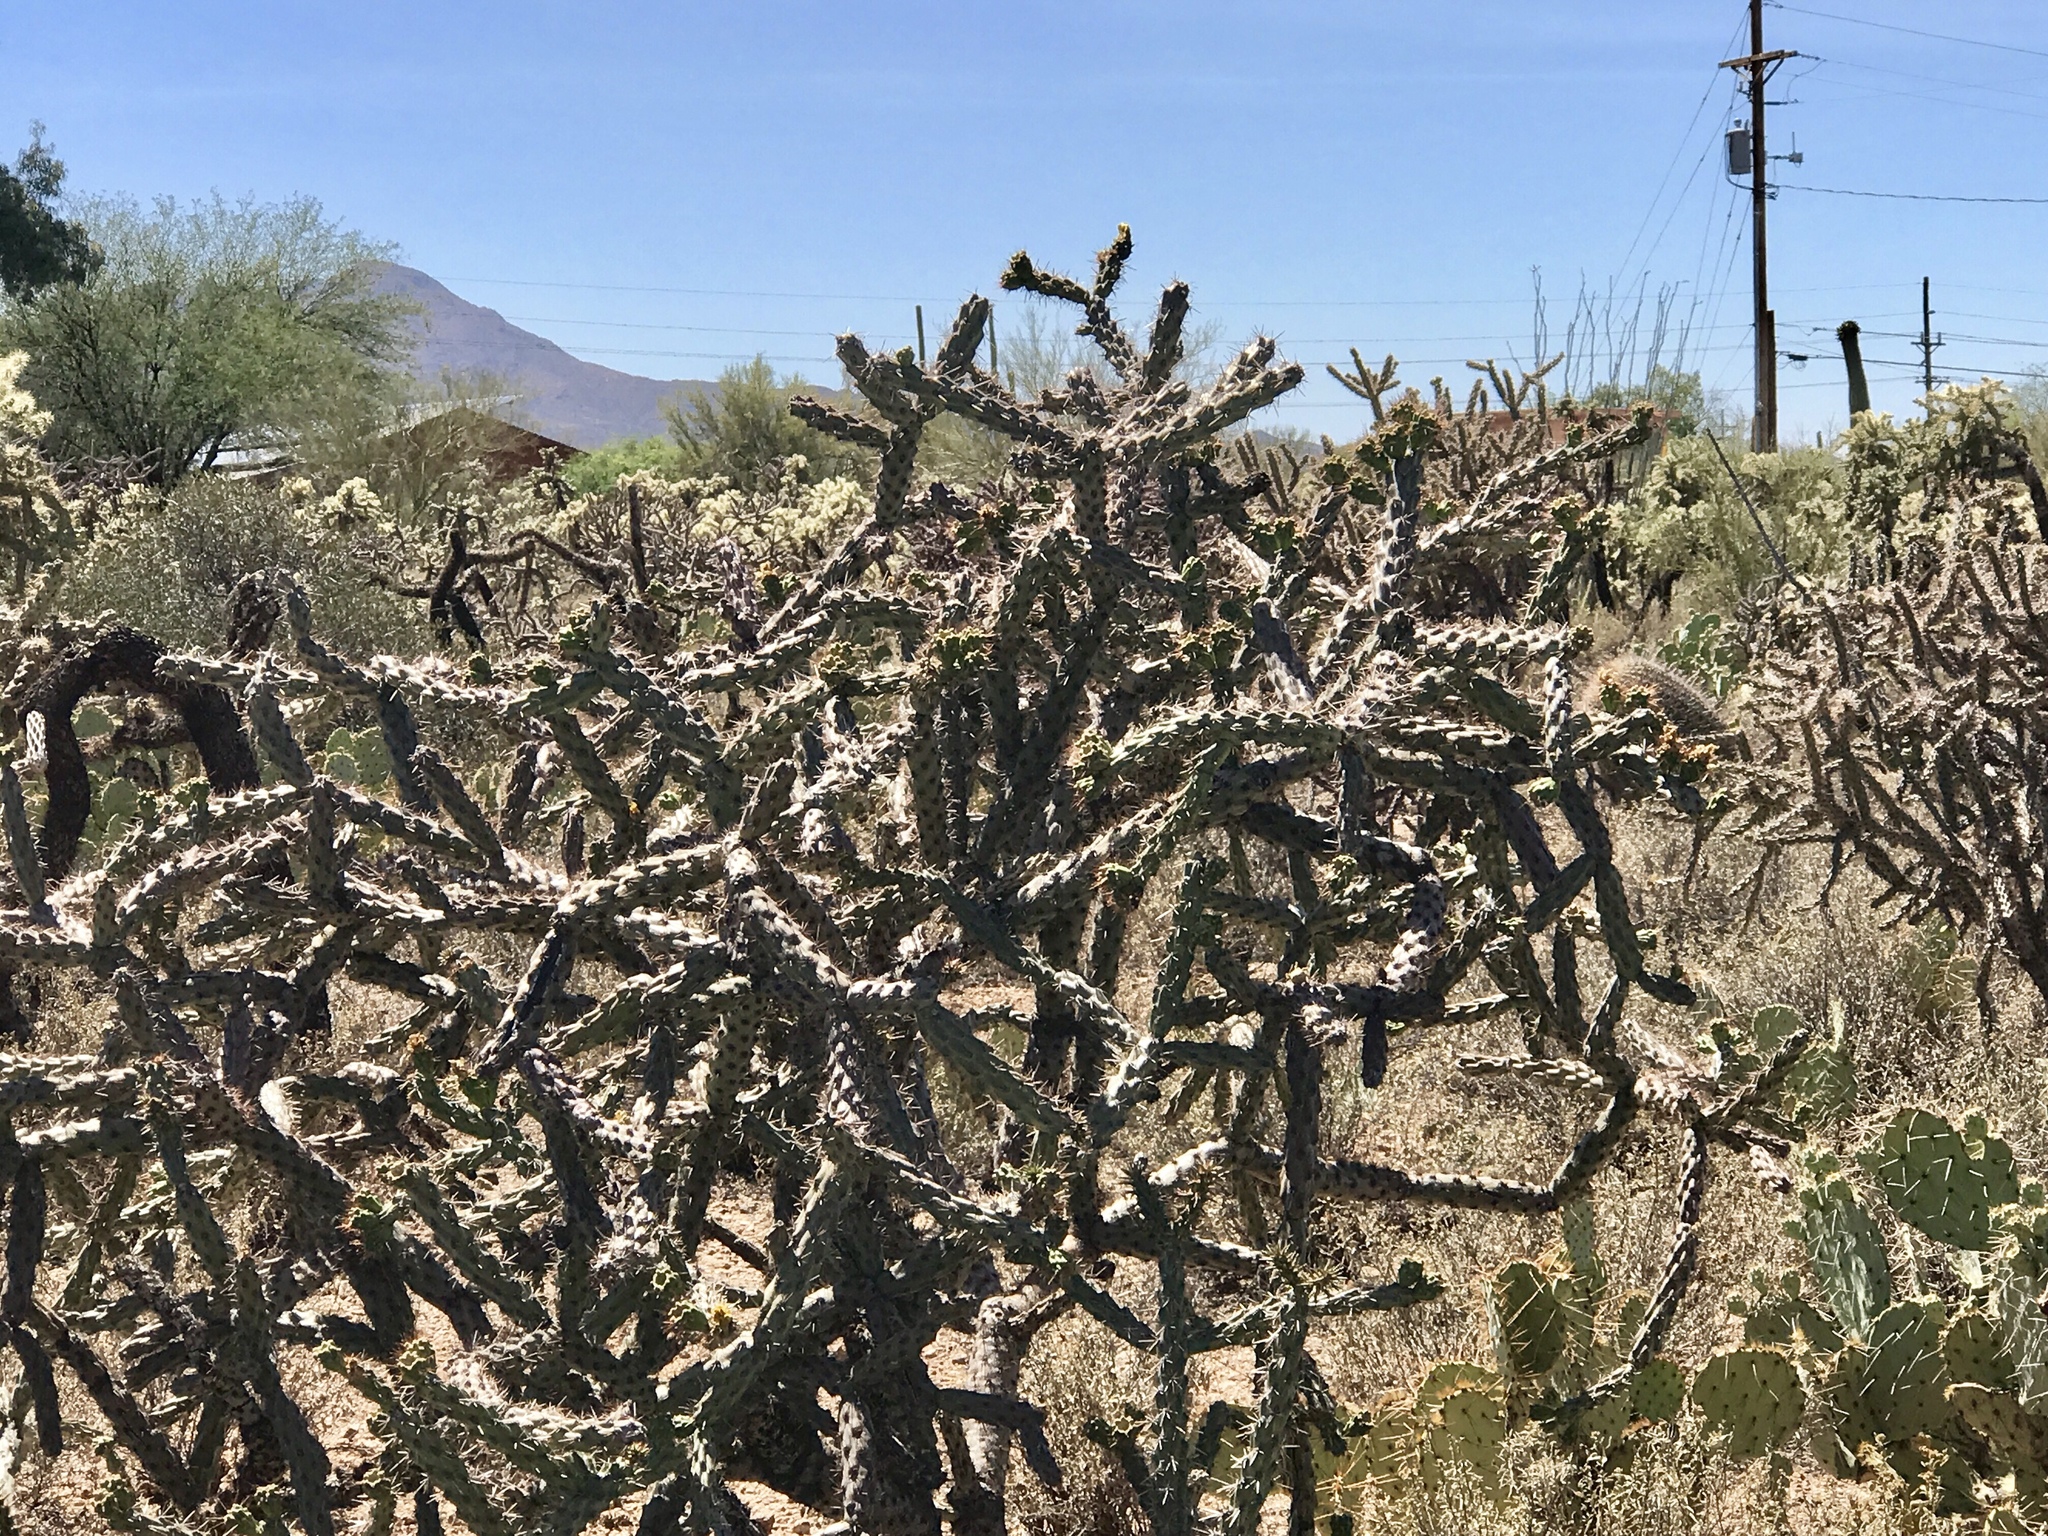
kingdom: Plantae
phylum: Tracheophyta
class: Magnoliopsida
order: Caryophyllales
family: Cactaceae
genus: Cylindropuntia
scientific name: Cylindropuntia thurberi
